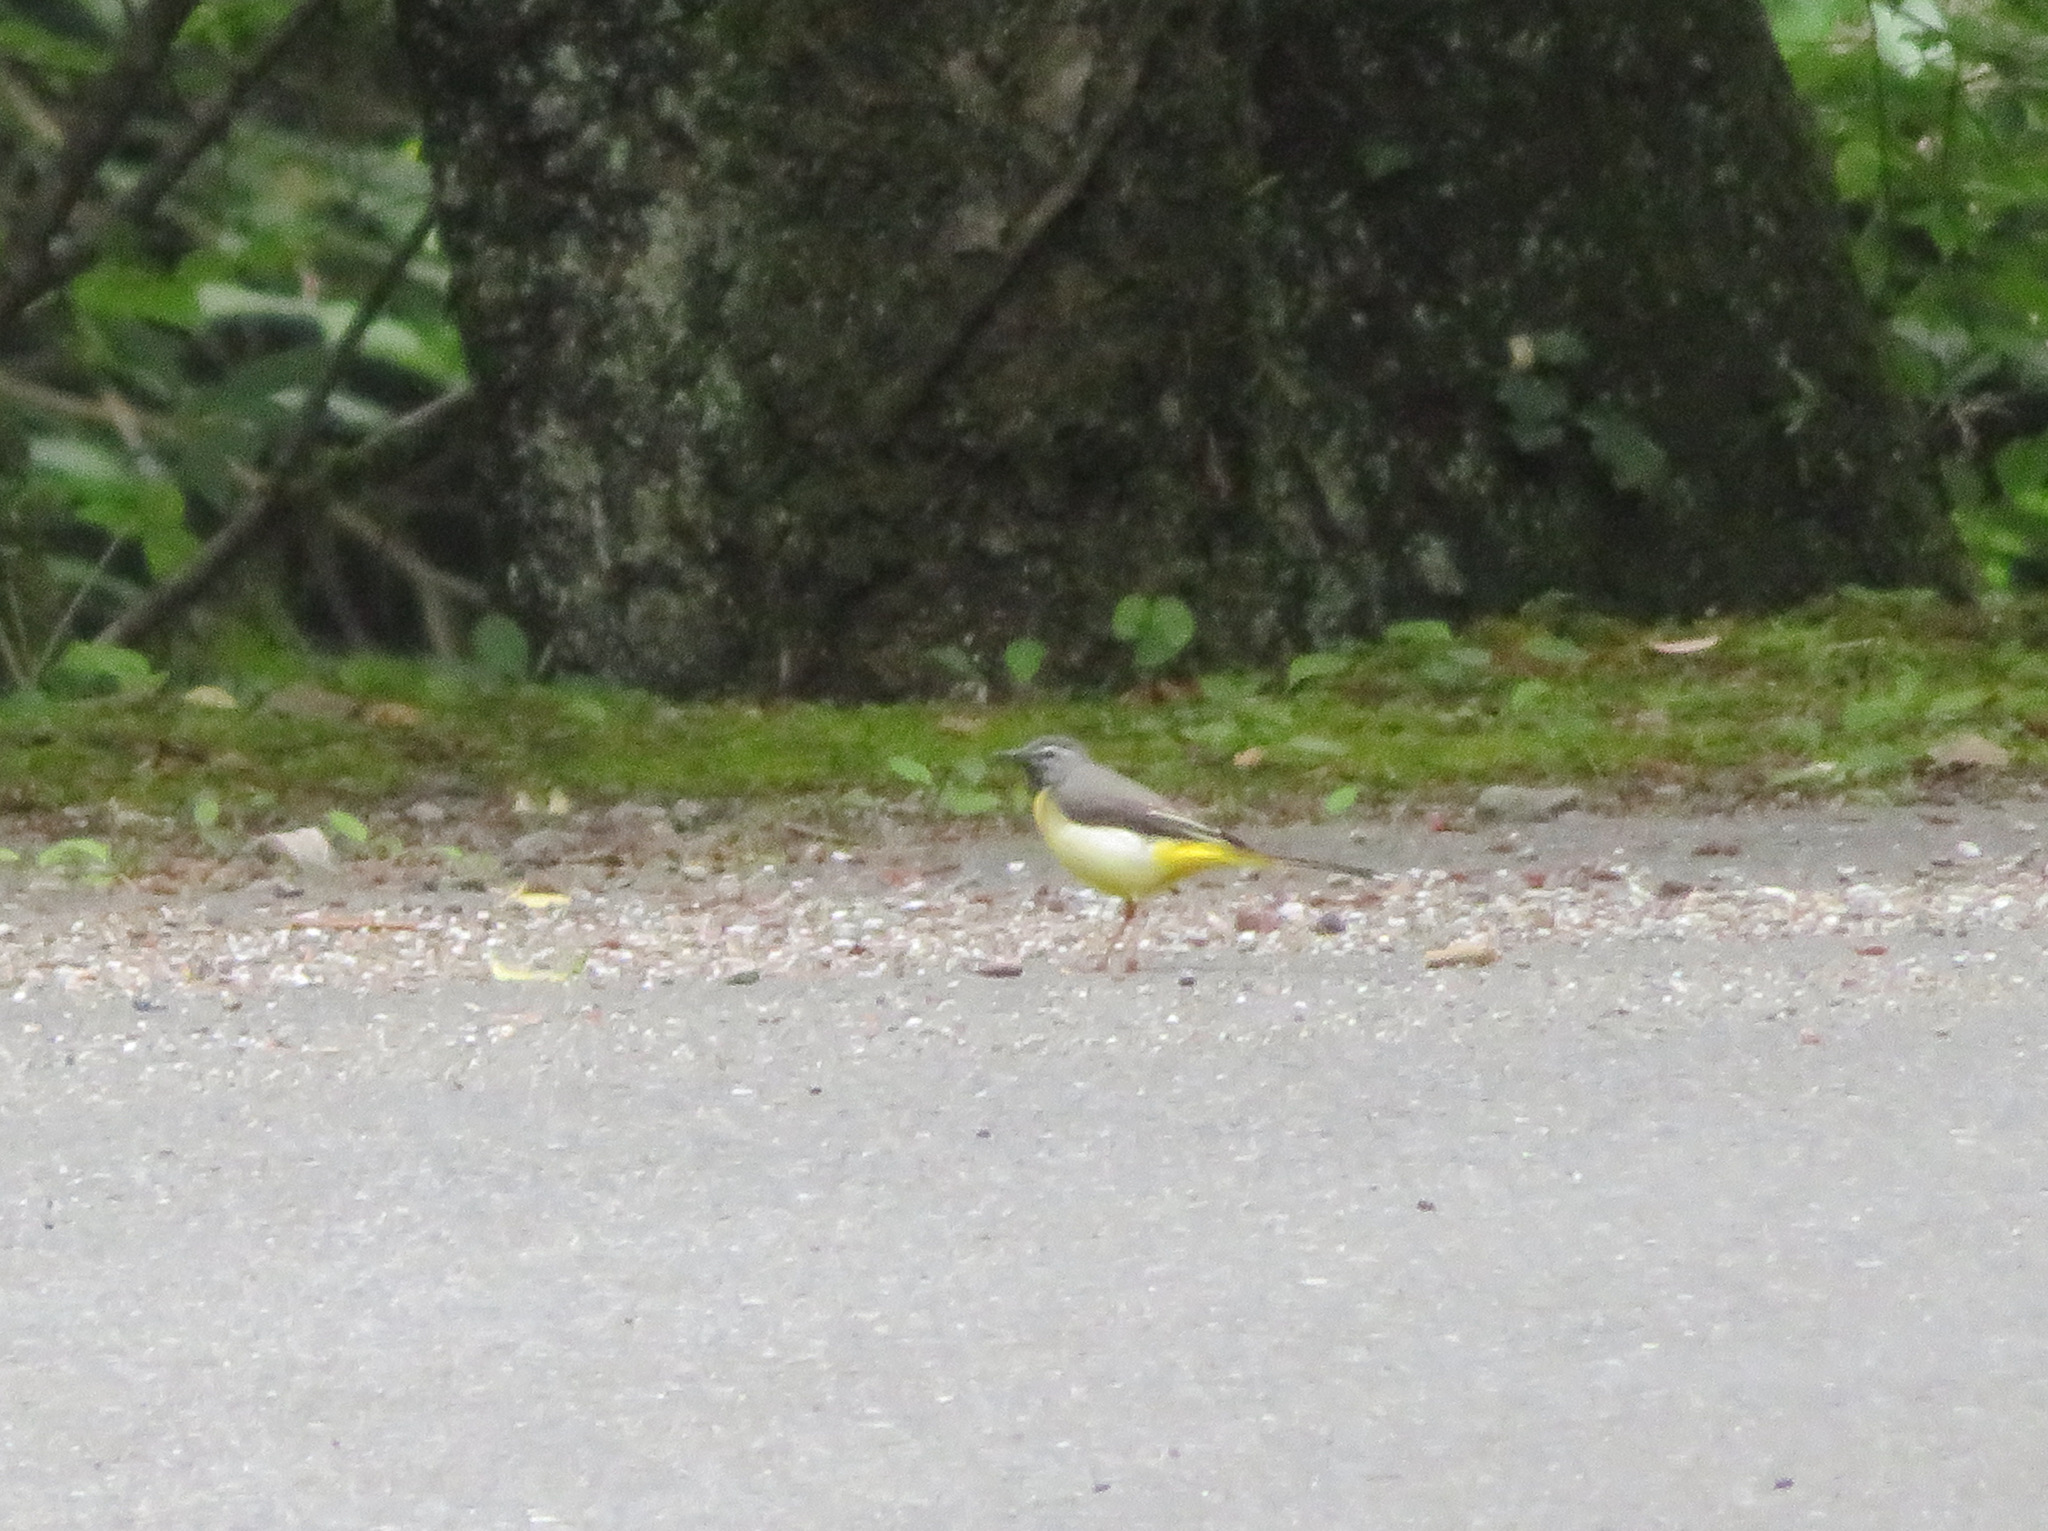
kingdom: Animalia
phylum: Chordata
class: Aves
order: Passeriformes
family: Motacillidae
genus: Motacilla
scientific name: Motacilla cinerea
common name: Grey wagtail
